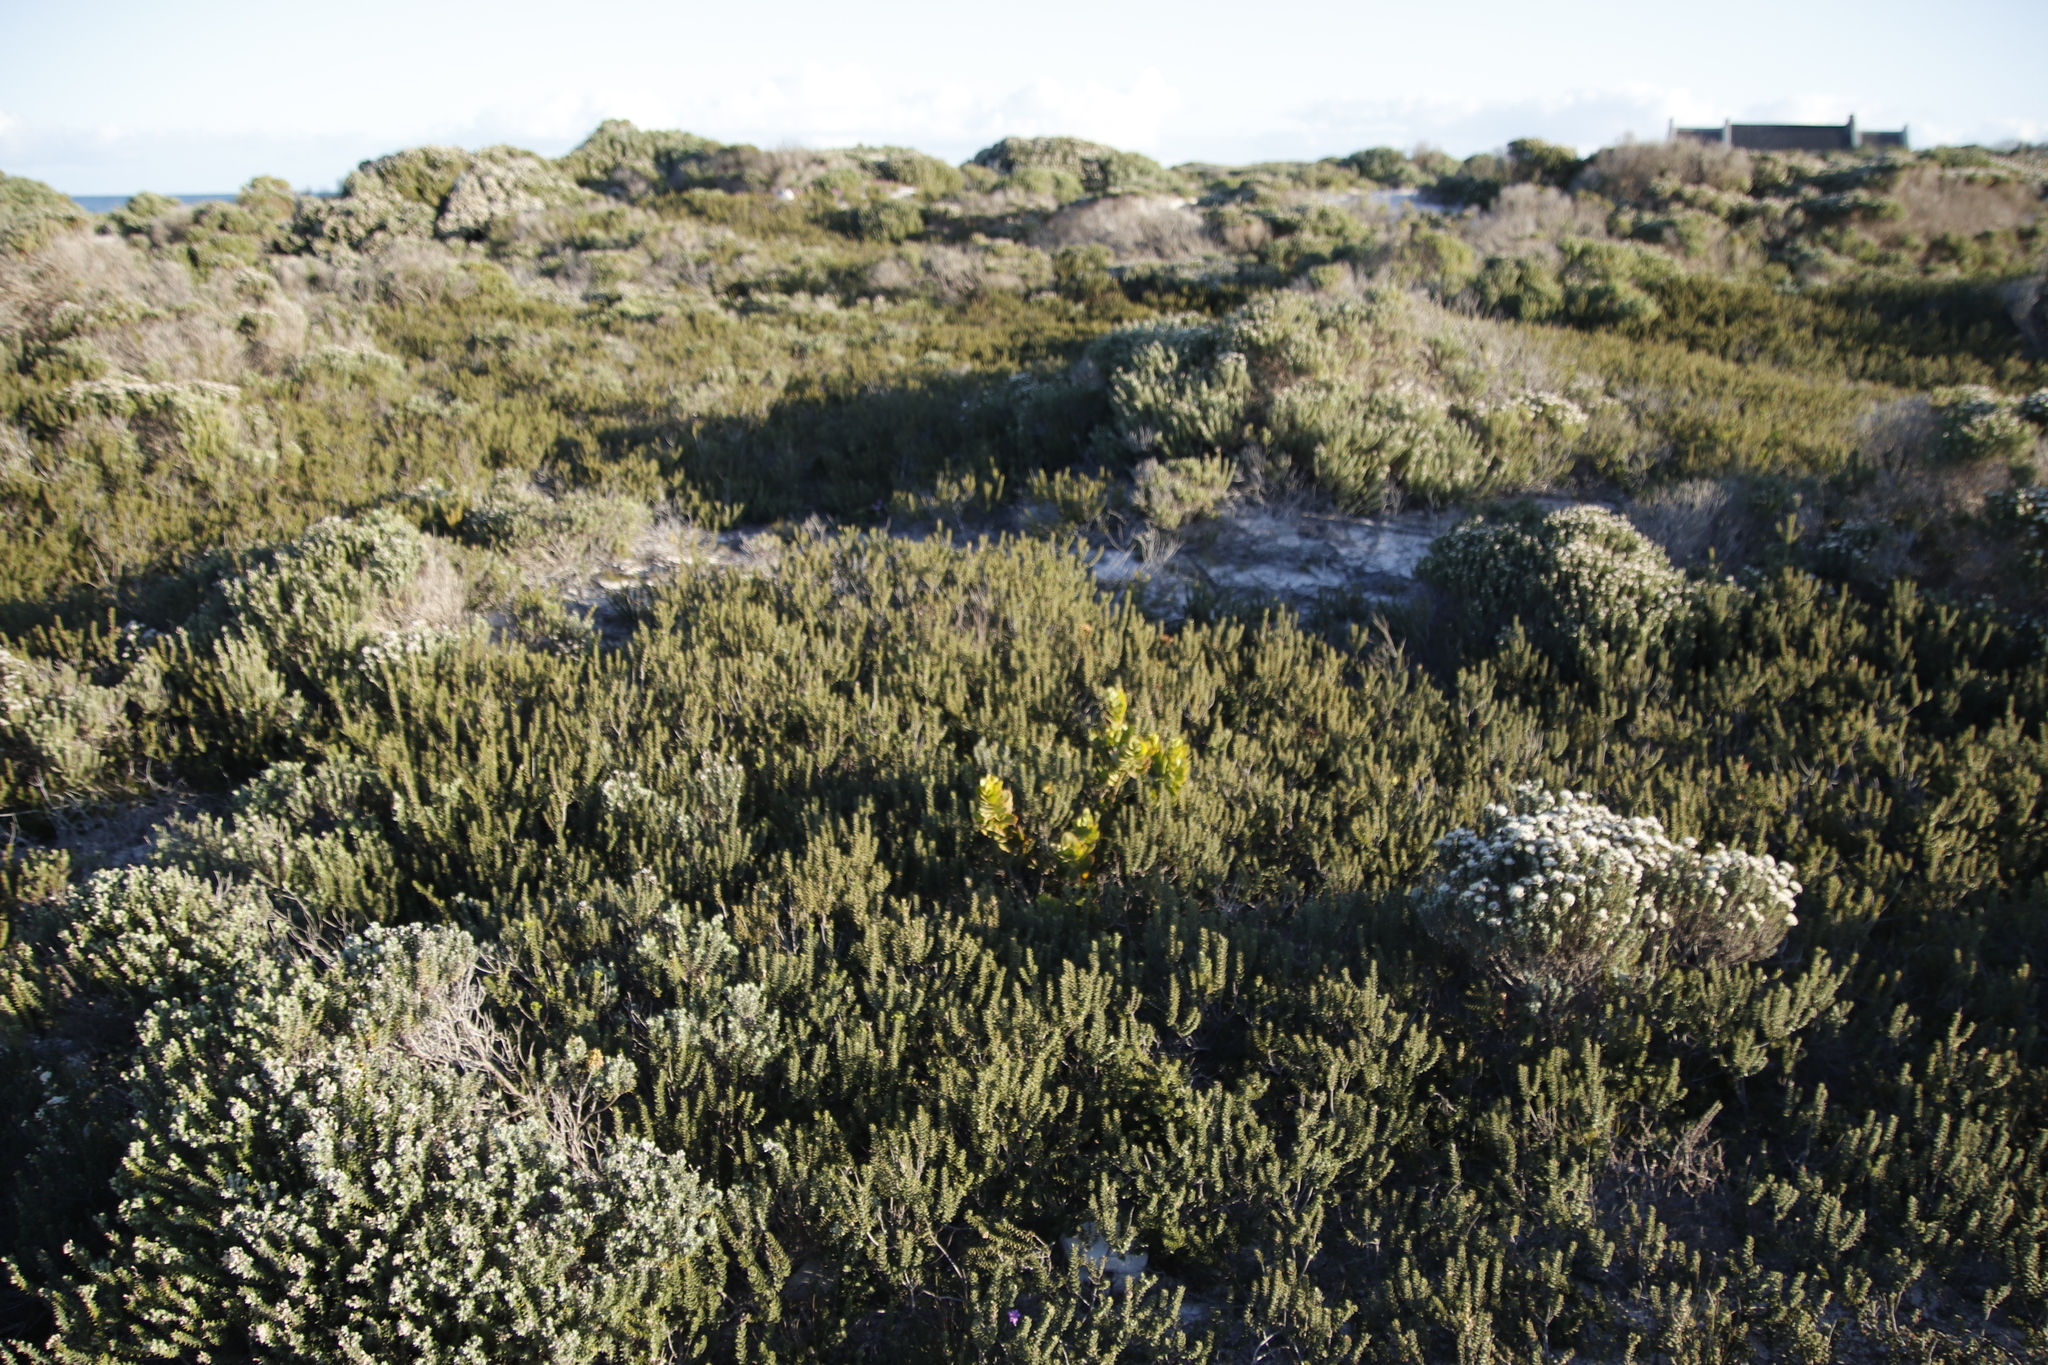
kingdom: Plantae
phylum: Tracheophyta
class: Magnoliopsida
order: Fagales
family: Myricaceae
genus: Morella
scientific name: Morella cordifolia
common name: Waxberry
